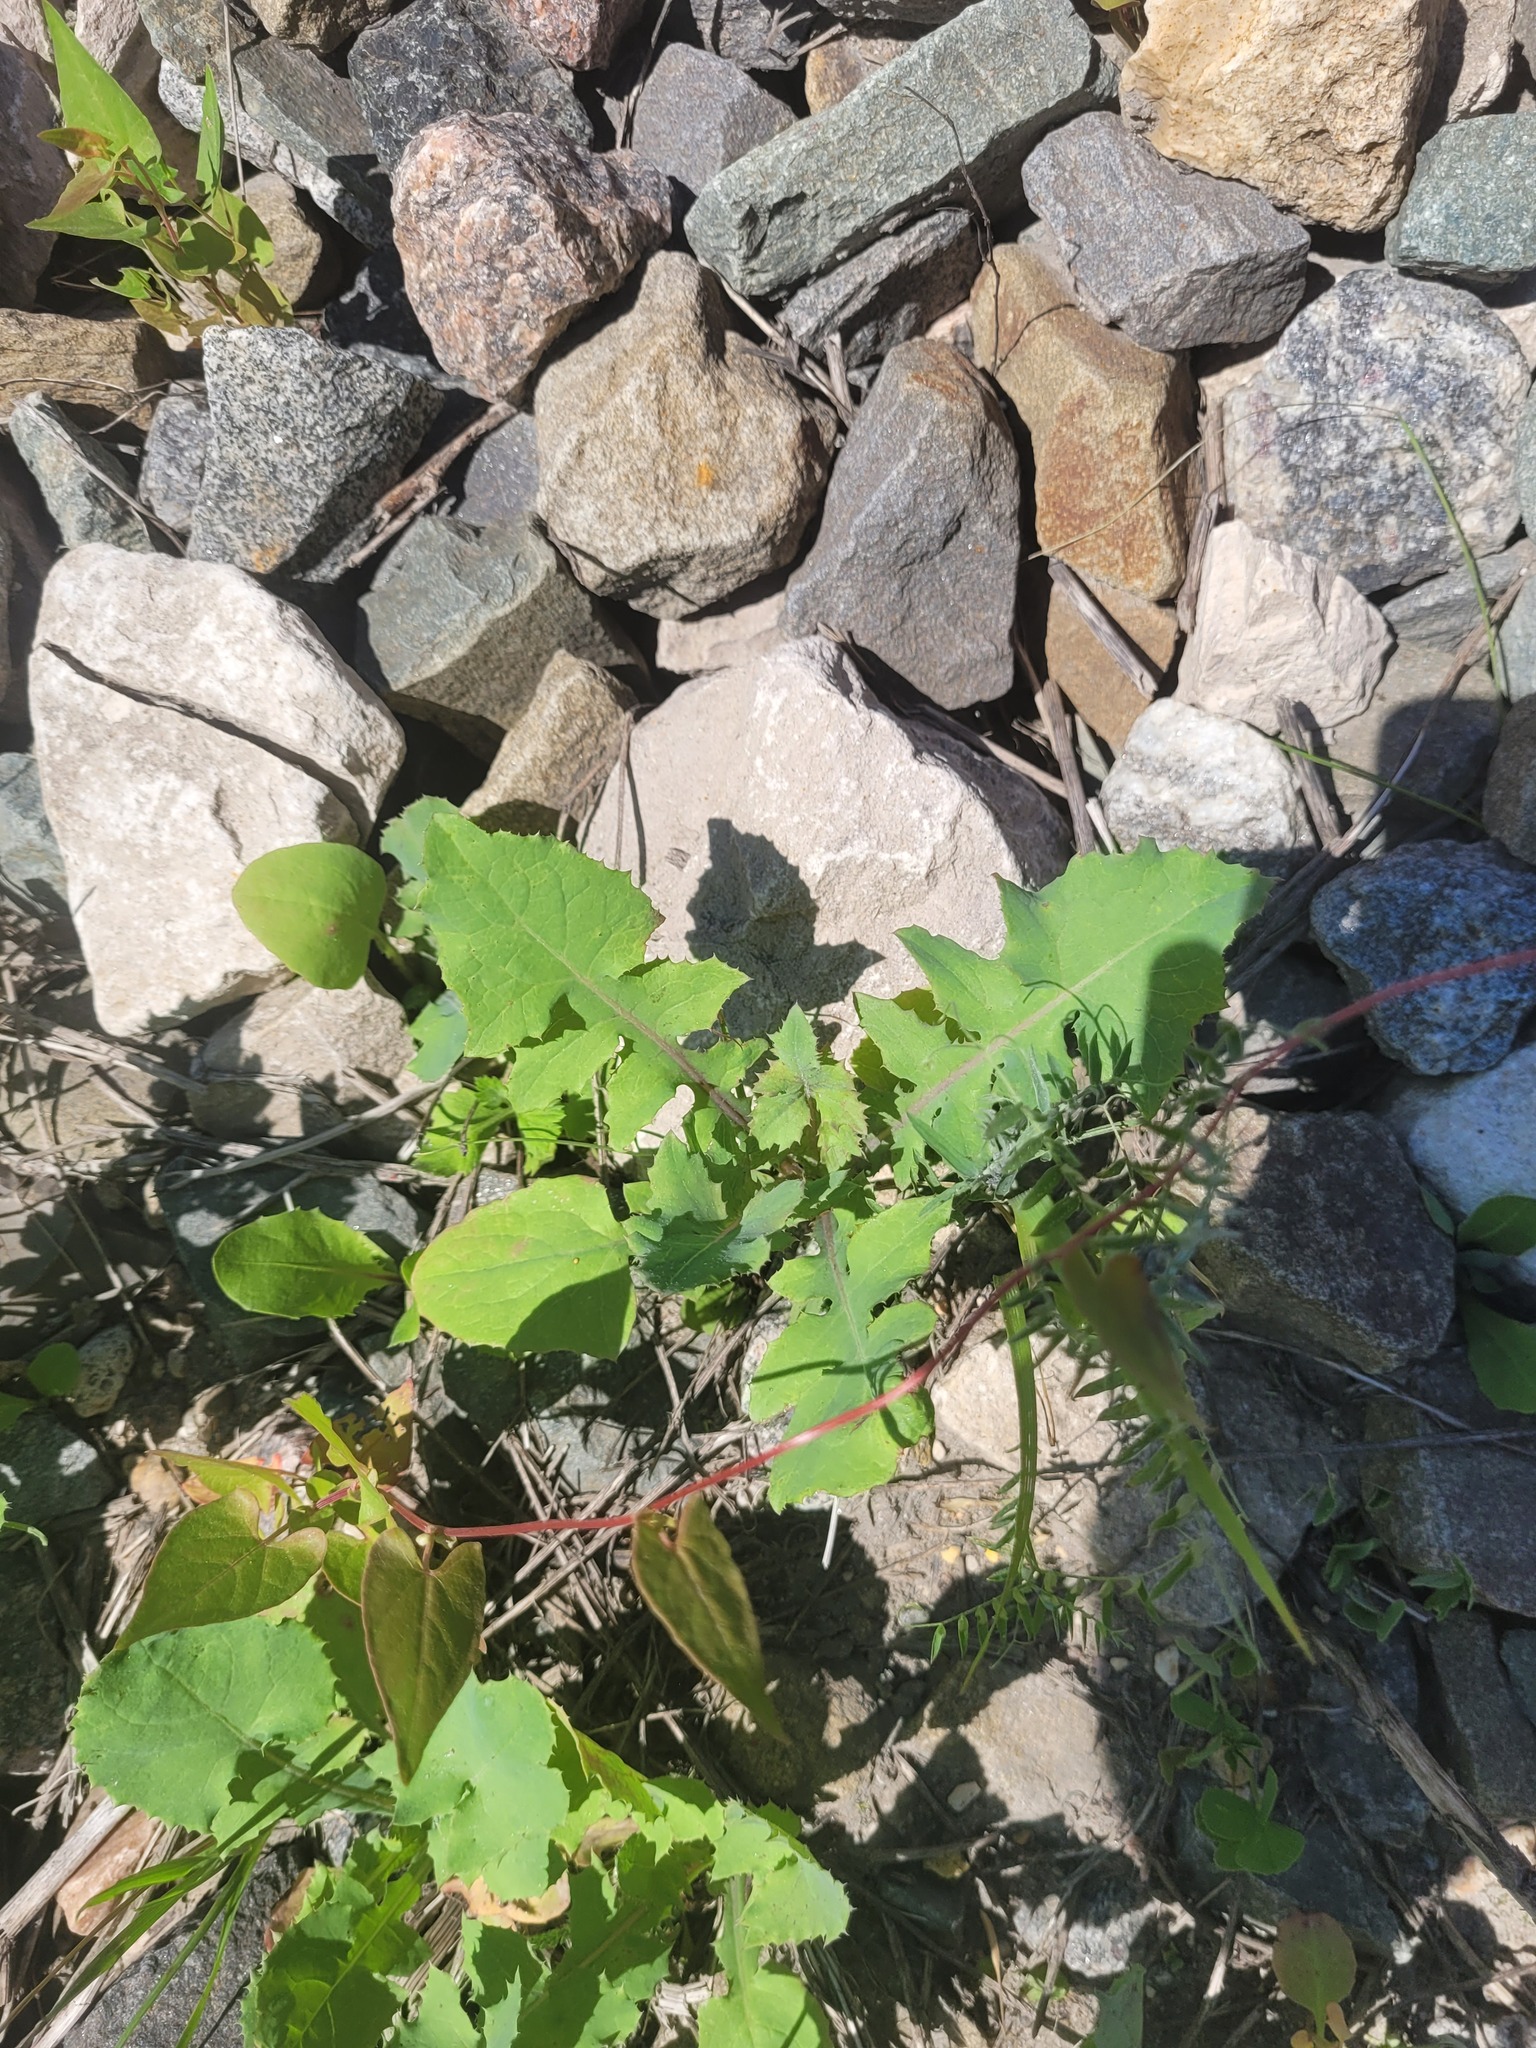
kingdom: Plantae
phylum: Tracheophyta
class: Magnoliopsida
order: Asterales
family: Asteraceae
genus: Sonchus
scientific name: Sonchus oleraceus
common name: Common sowthistle
